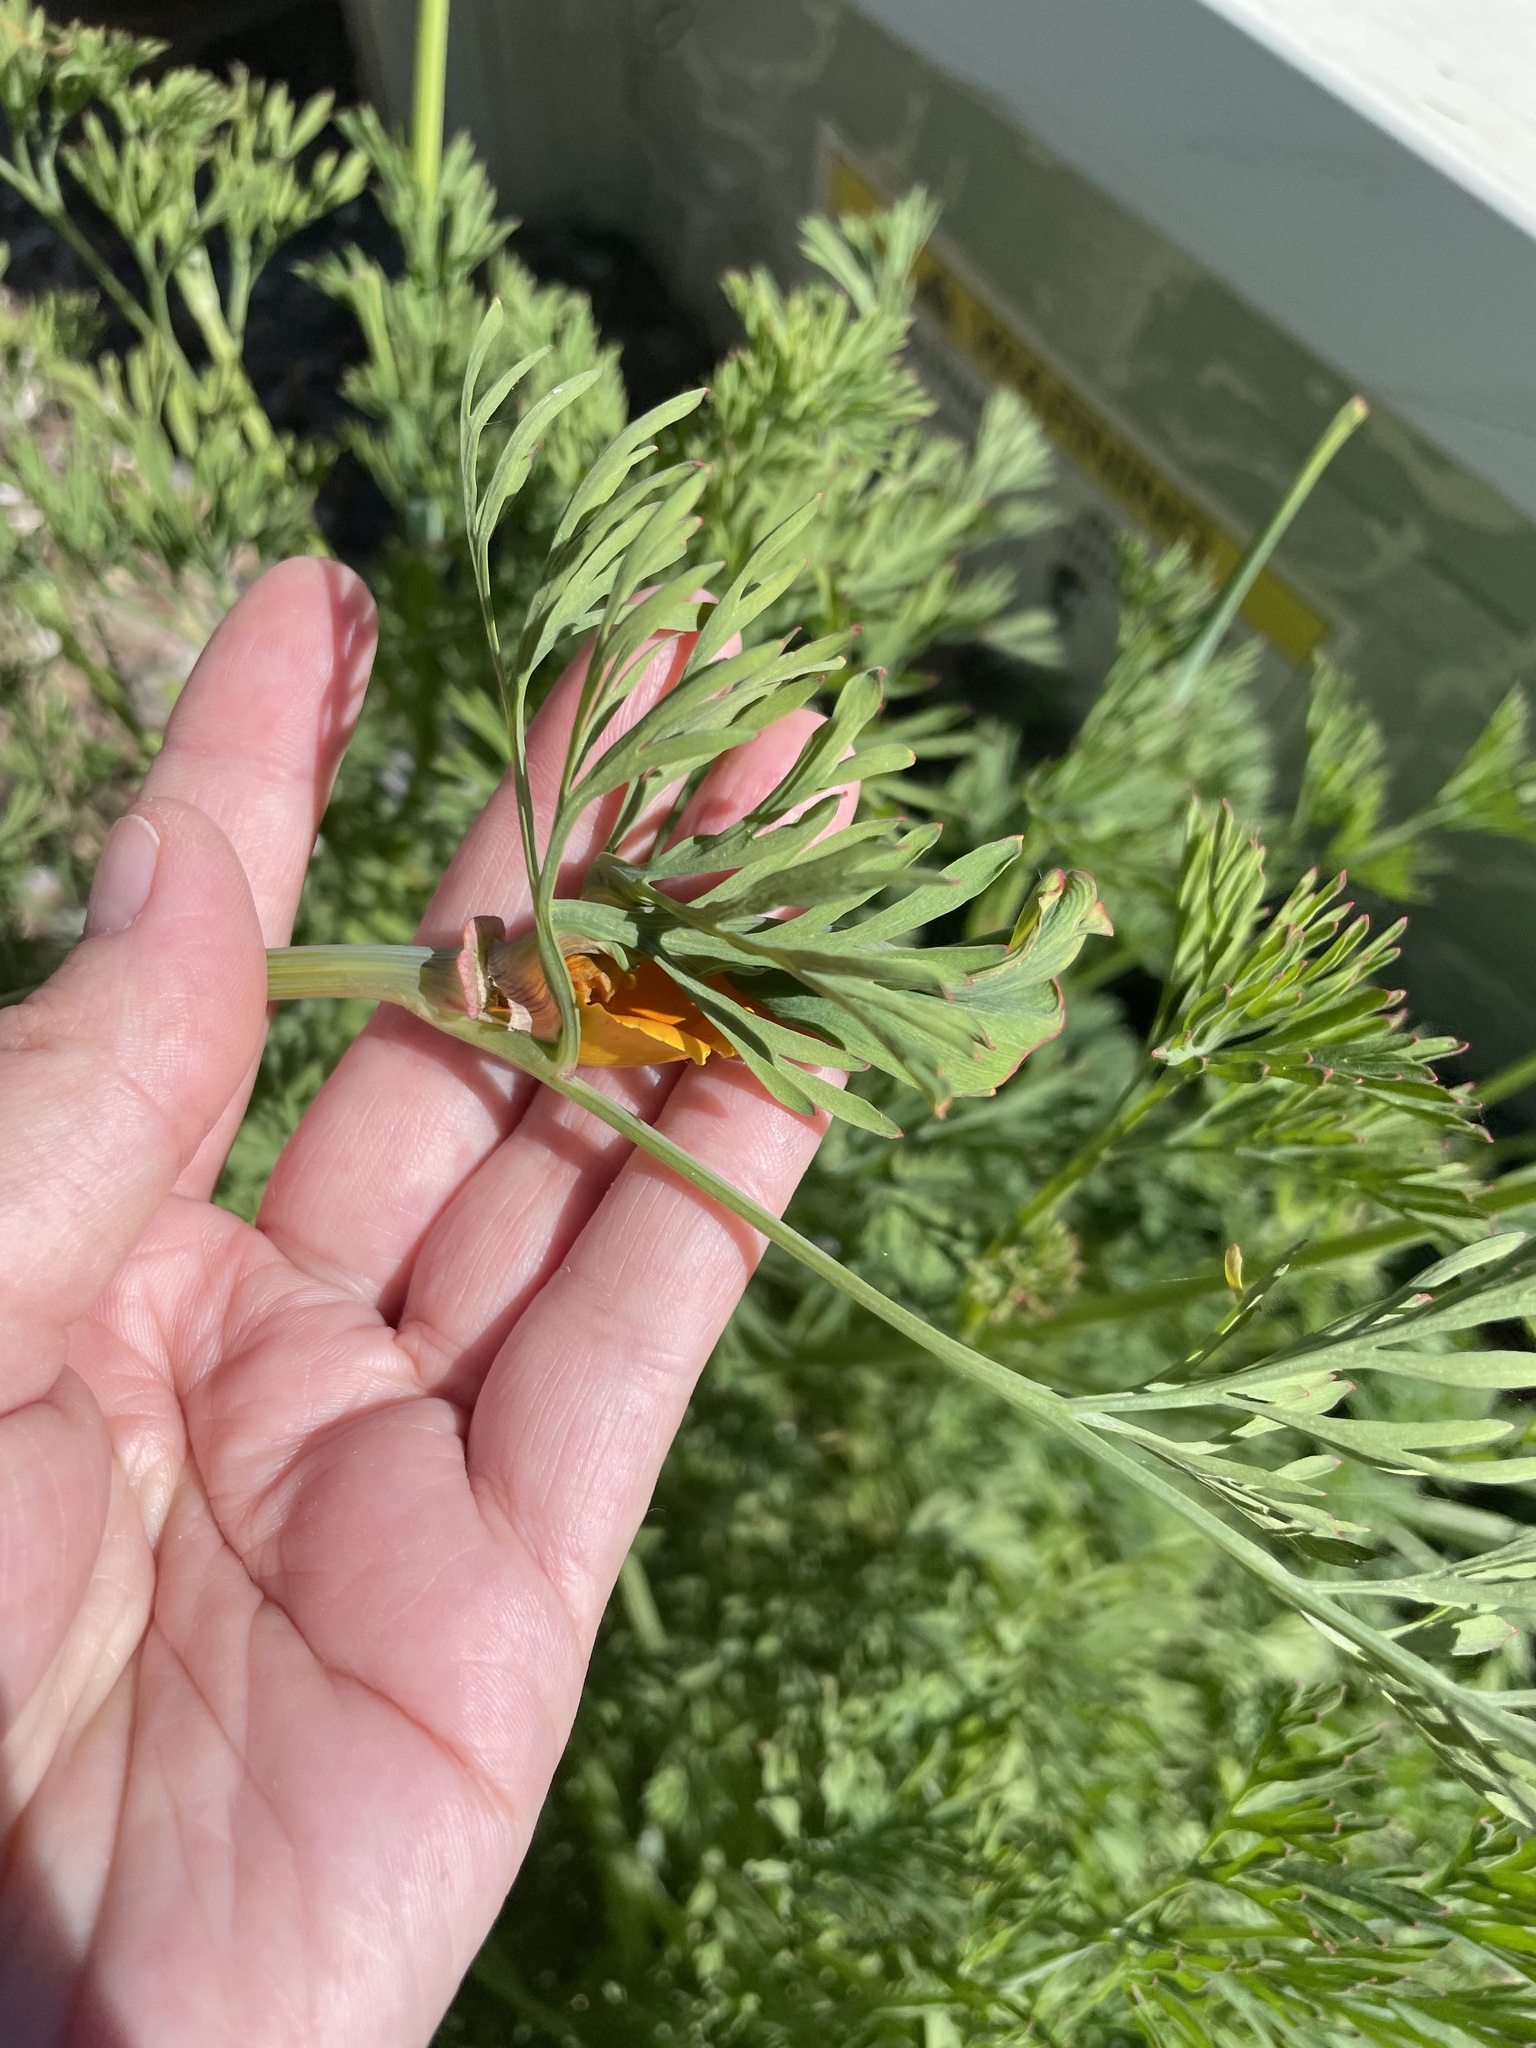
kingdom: Plantae
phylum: Tracheophyta
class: Magnoliopsida
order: Ranunculales
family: Papaveraceae
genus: Eschscholzia
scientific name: Eschscholzia californica
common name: California poppy
